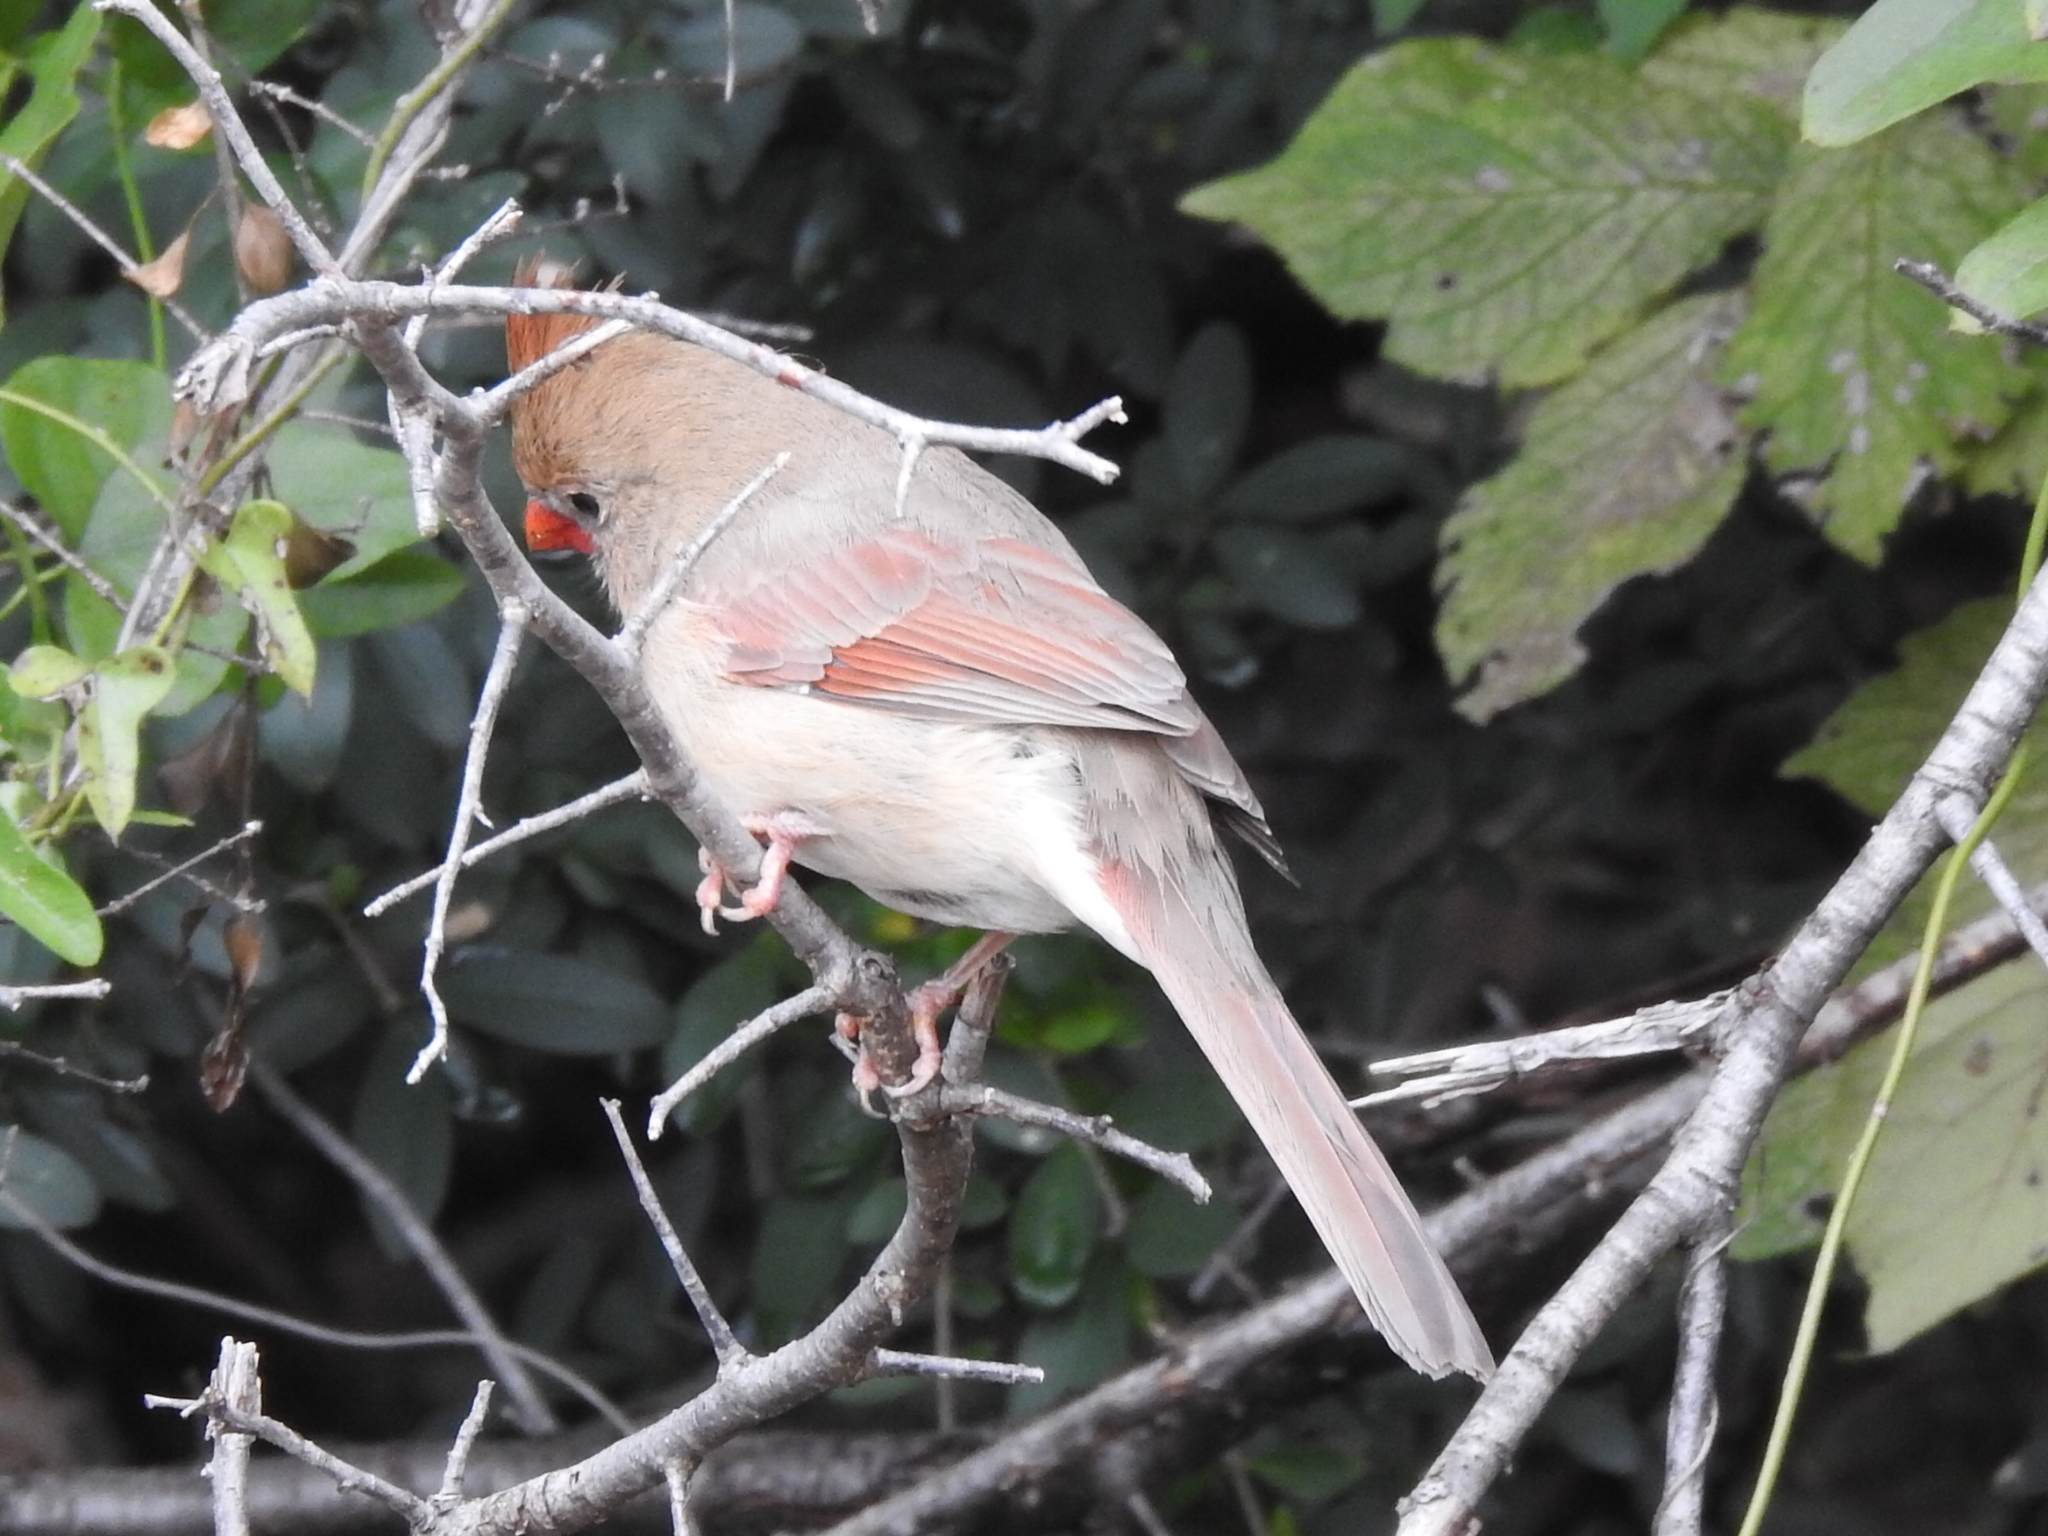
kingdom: Animalia
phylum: Chordata
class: Aves
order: Passeriformes
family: Cardinalidae
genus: Cardinalis
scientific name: Cardinalis cardinalis
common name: Northern cardinal
